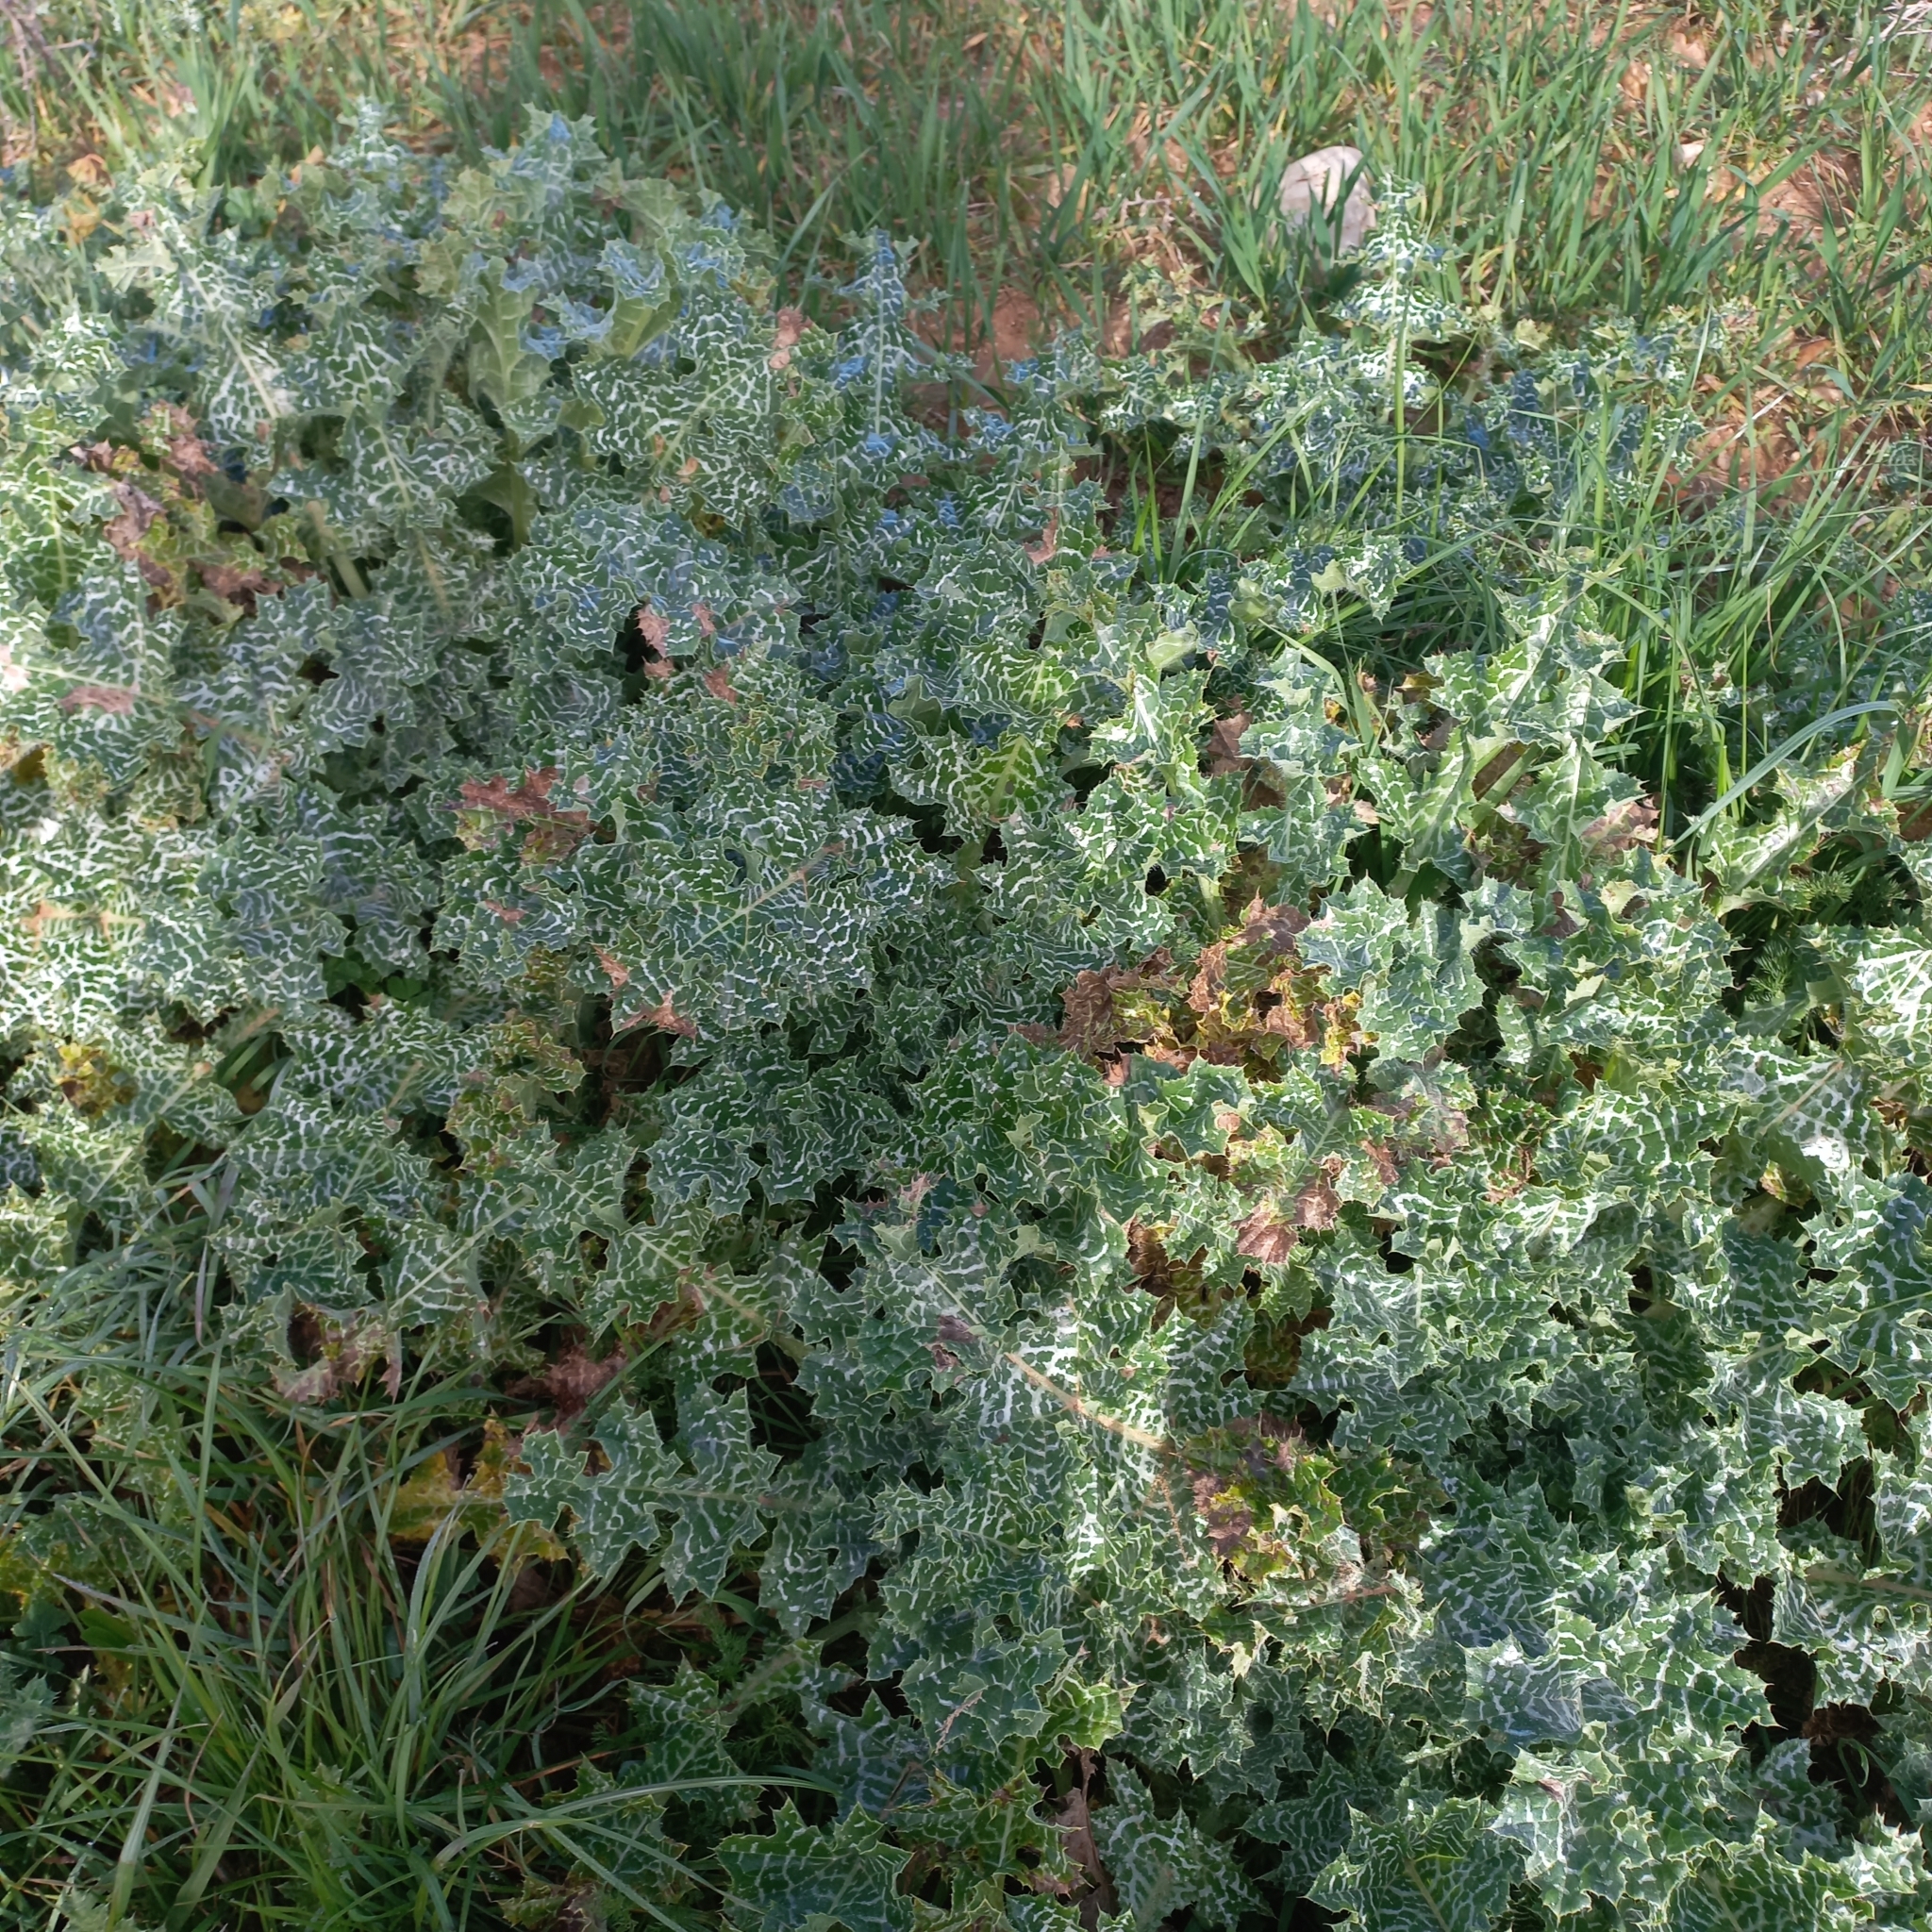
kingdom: Plantae
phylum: Tracheophyta
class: Magnoliopsida
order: Asterales
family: Asteraceae
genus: Silybum
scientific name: Silybum marianum
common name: Milk thistle
